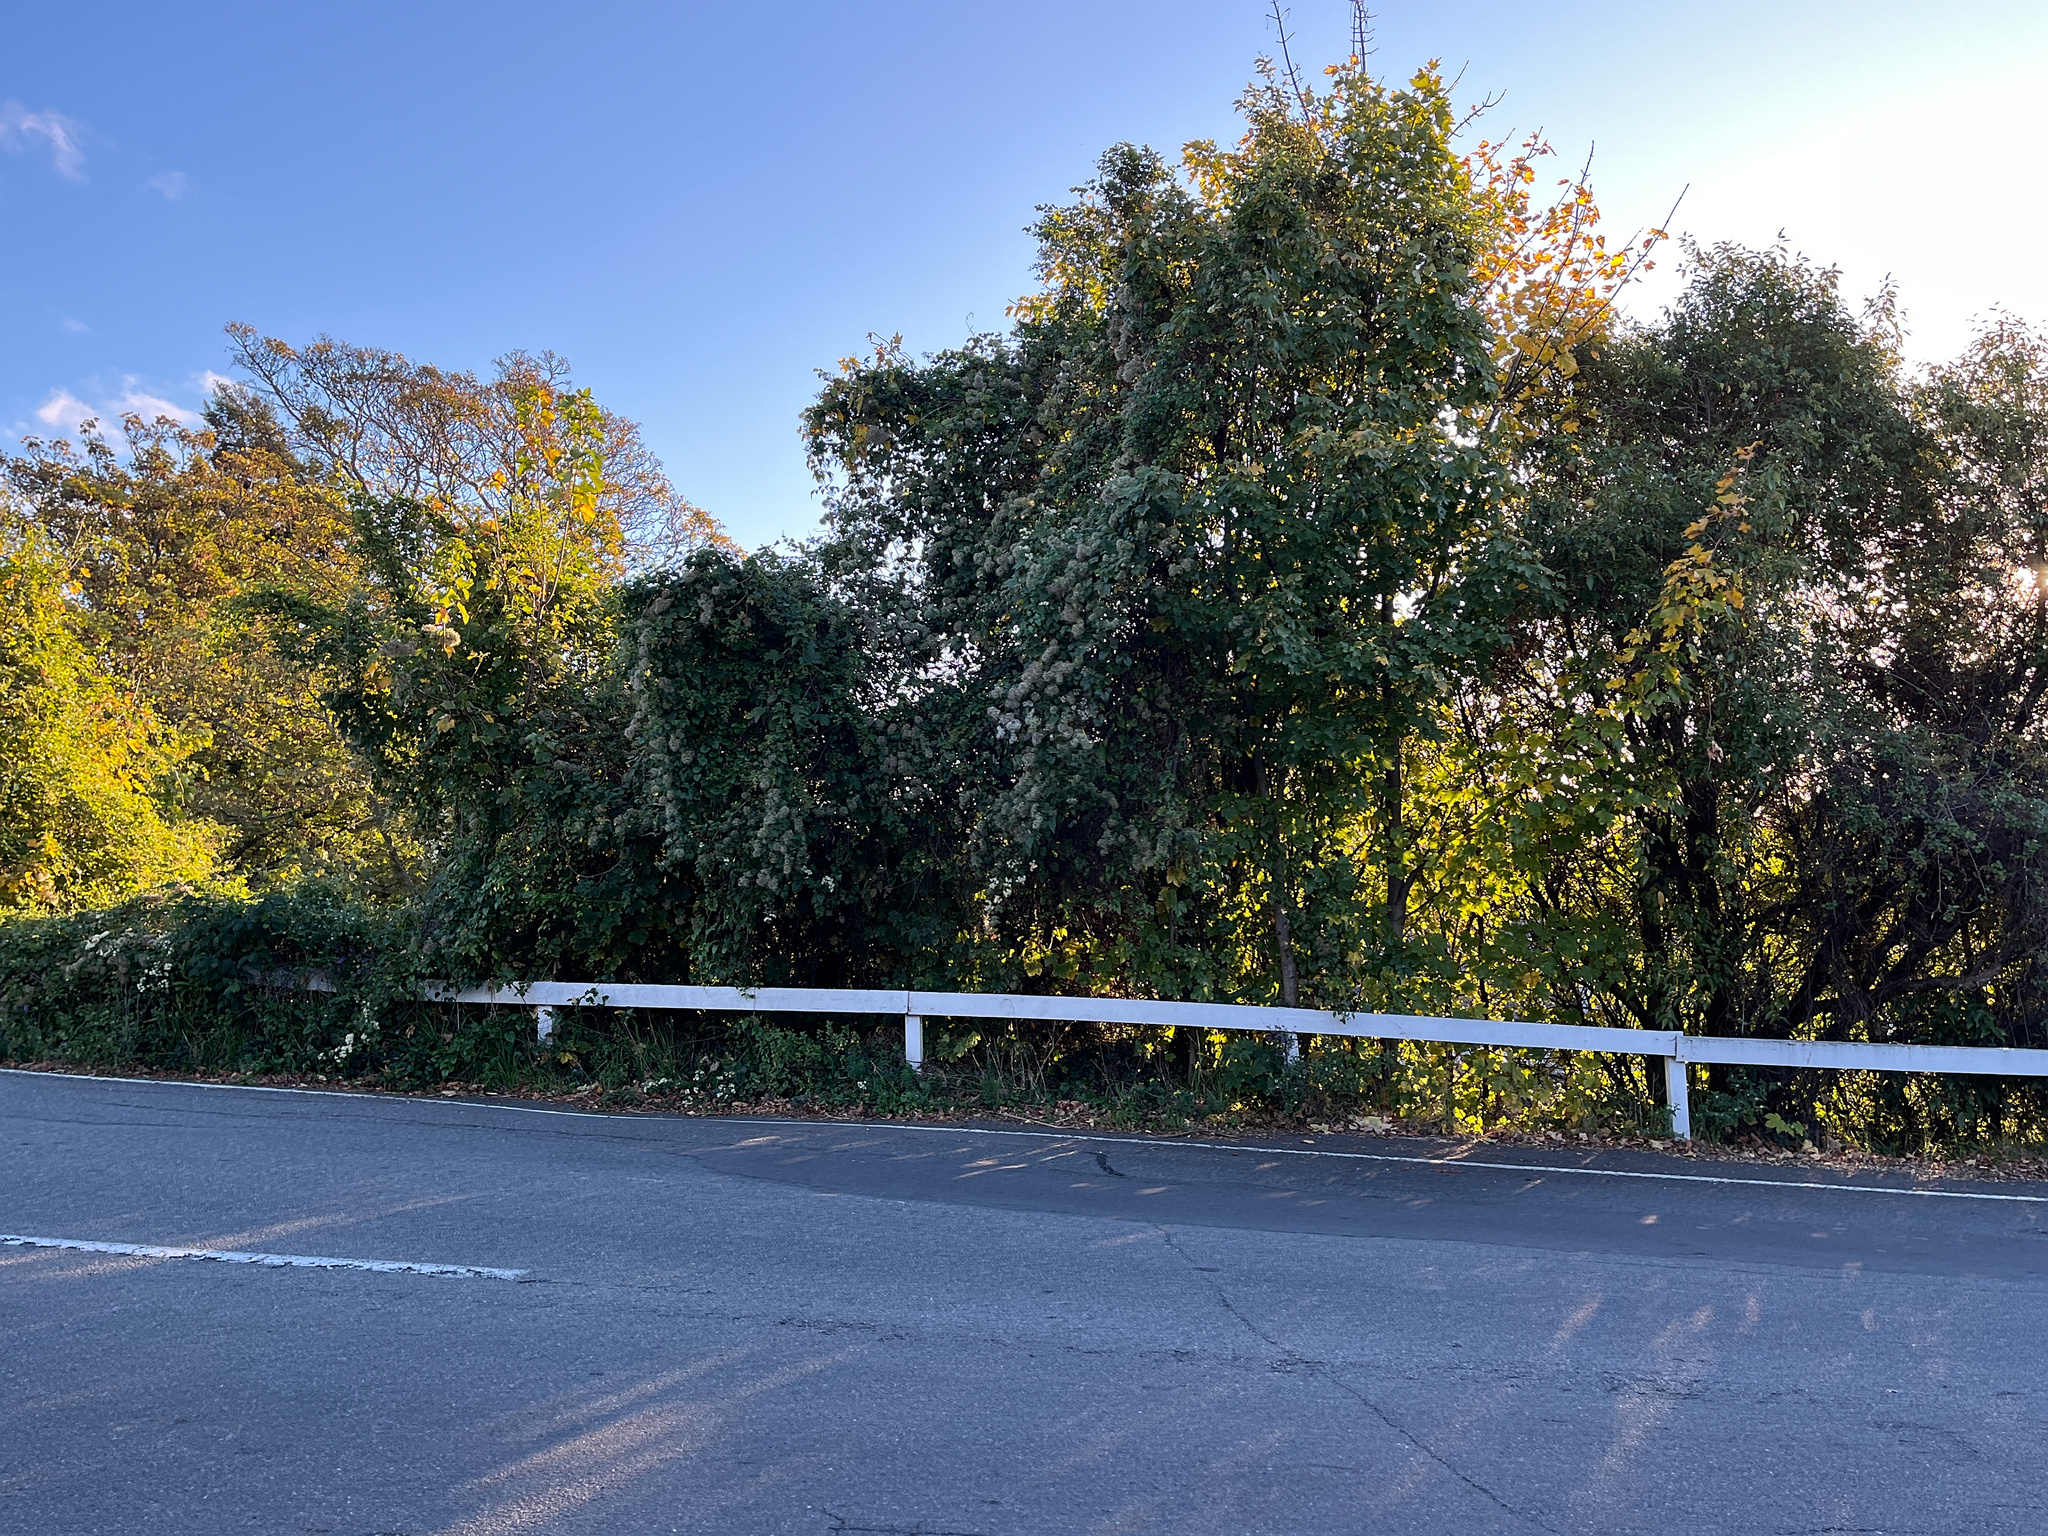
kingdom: Plantae
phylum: Tracheophyta
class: Magnoliopsida
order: Ranunculales
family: Ranunculaceae
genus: Clematis
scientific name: Clematis vitalba
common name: Evergreen clematis
